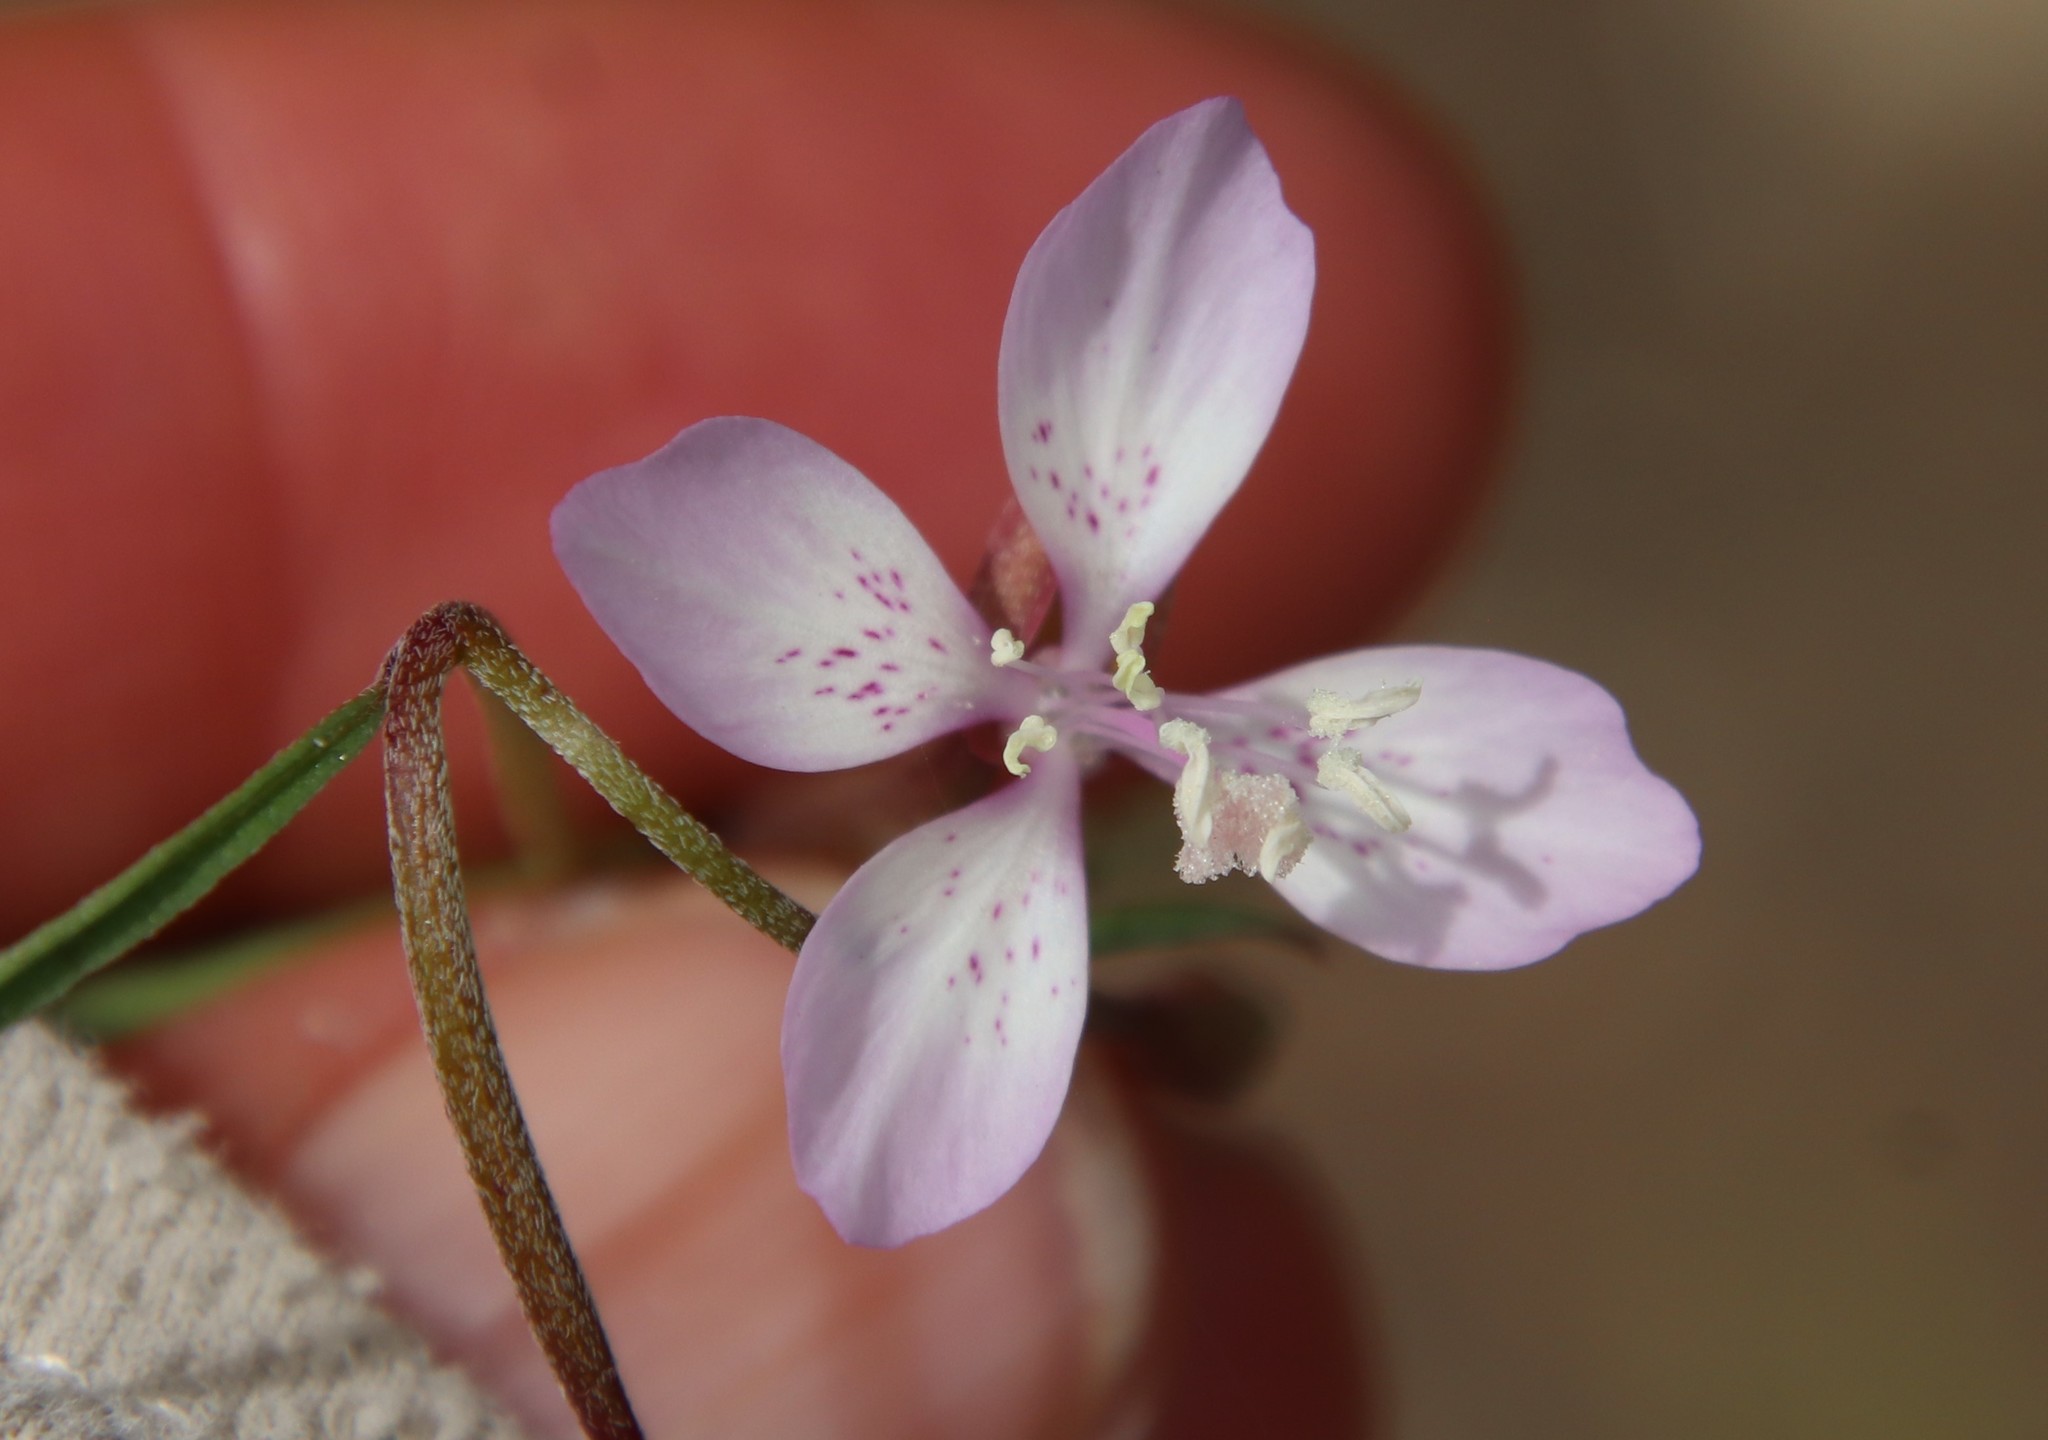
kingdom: Plantae
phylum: Tracheophyta
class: Magnoliopsida
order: Myrtales
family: Onagraceae
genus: Clarkia
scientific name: Clarkia similis
